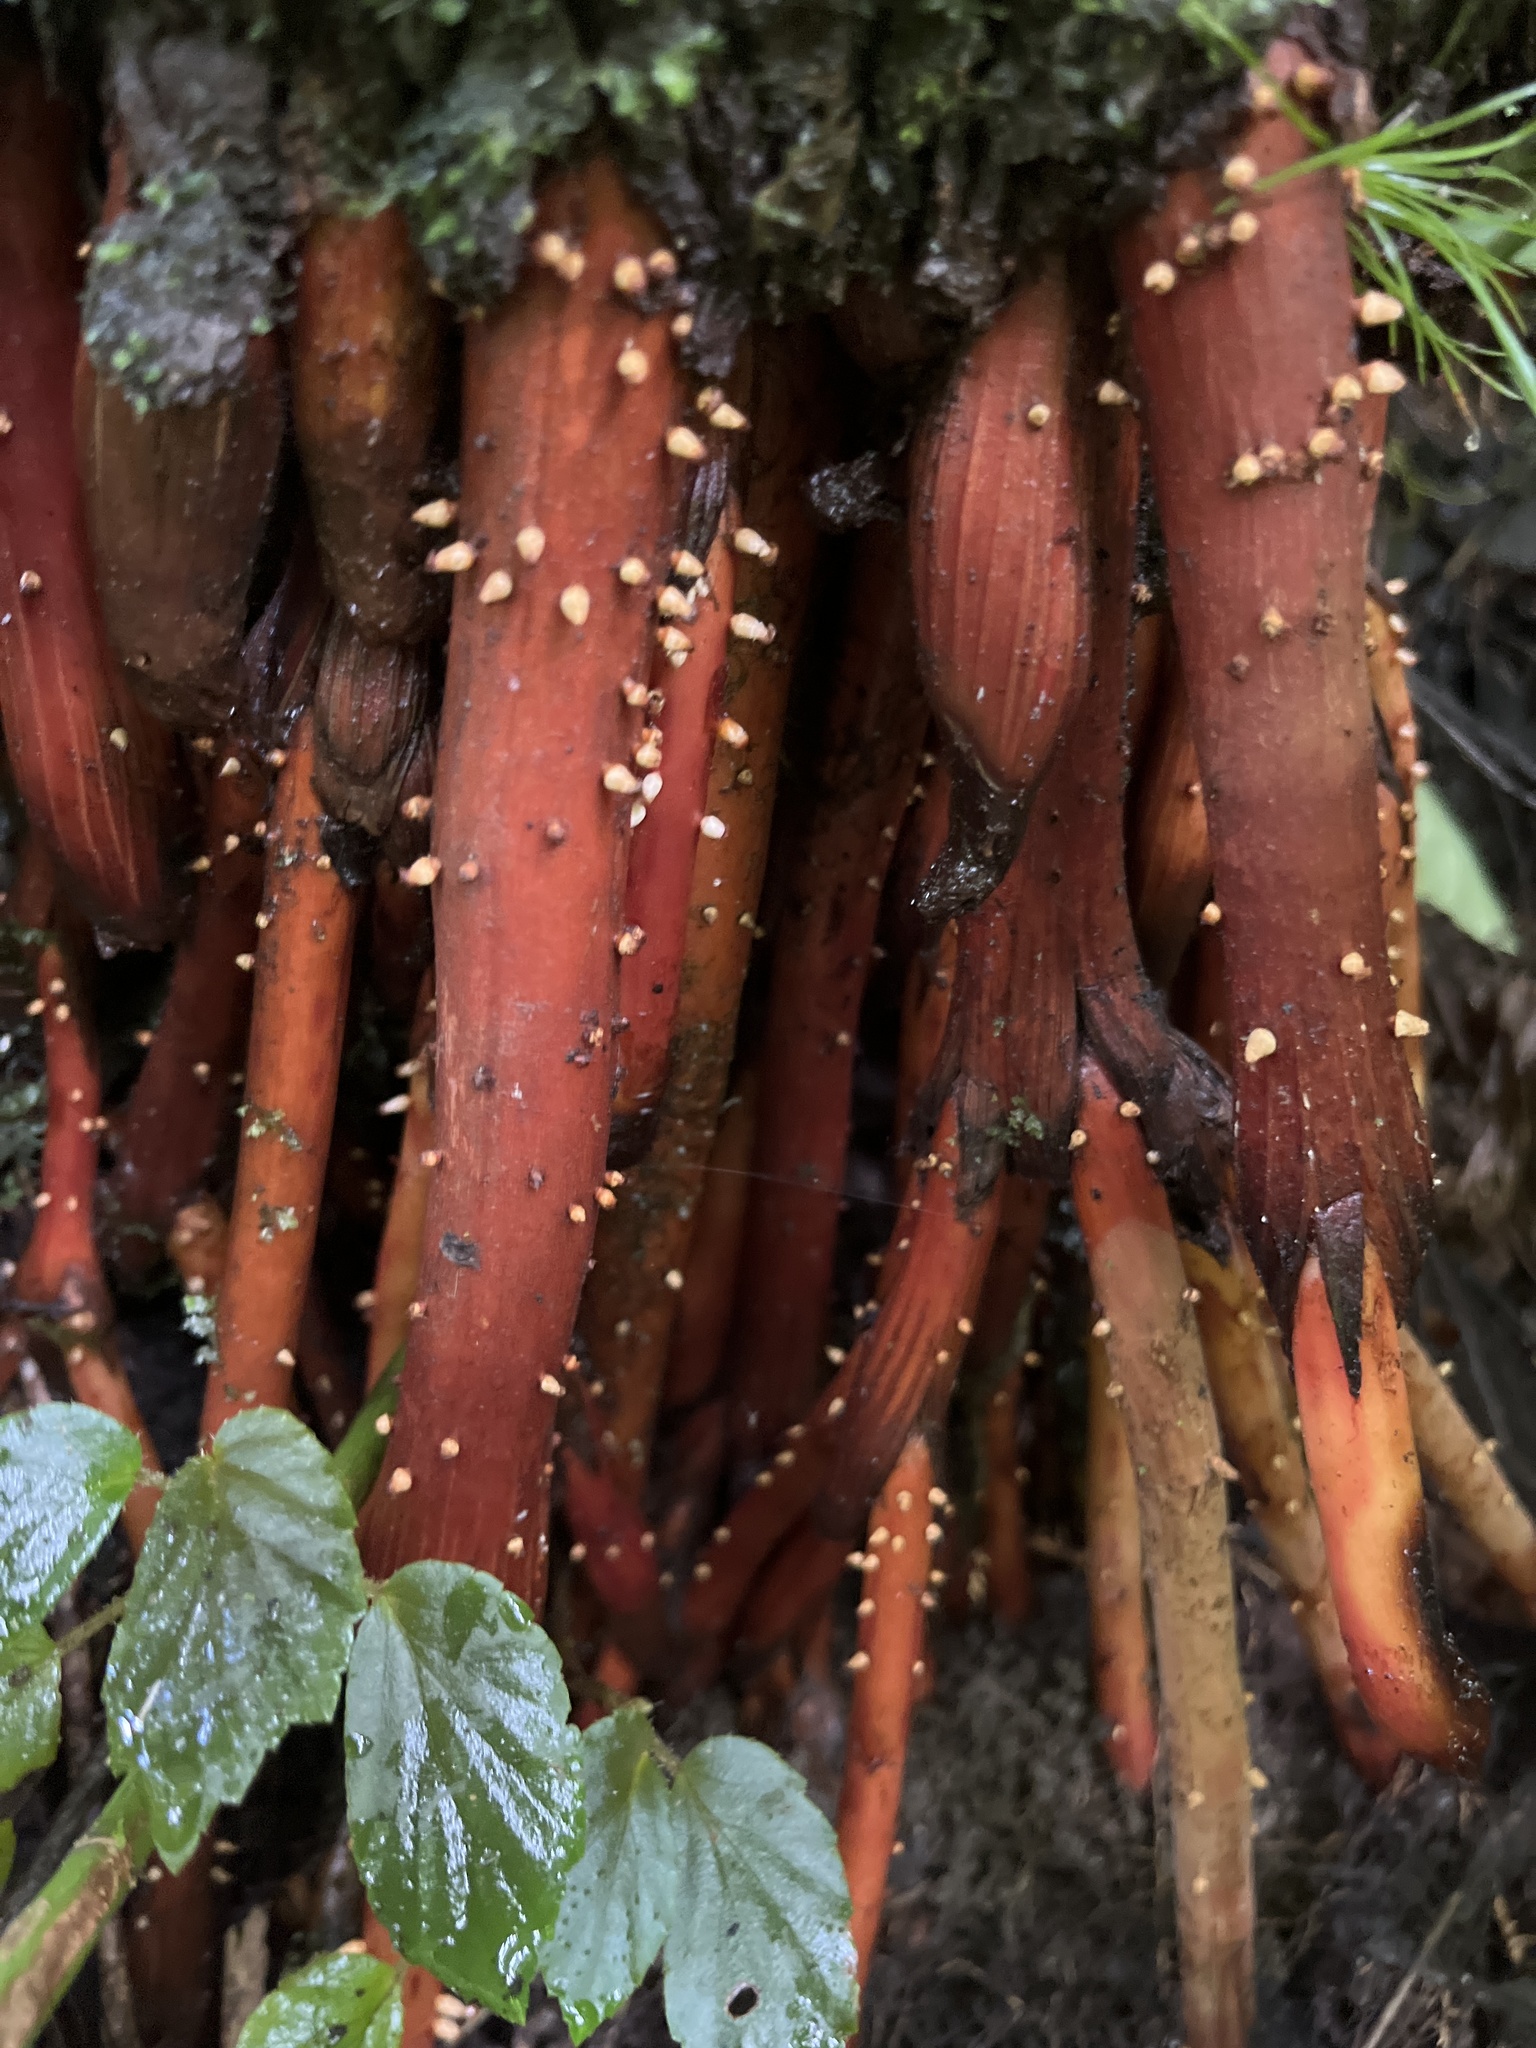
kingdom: Plantae
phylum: Tracheophyta
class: Liliopsida
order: Arecales
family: Arecaceae
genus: Prestoea
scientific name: Prestoea acuminata
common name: Sierran palm
